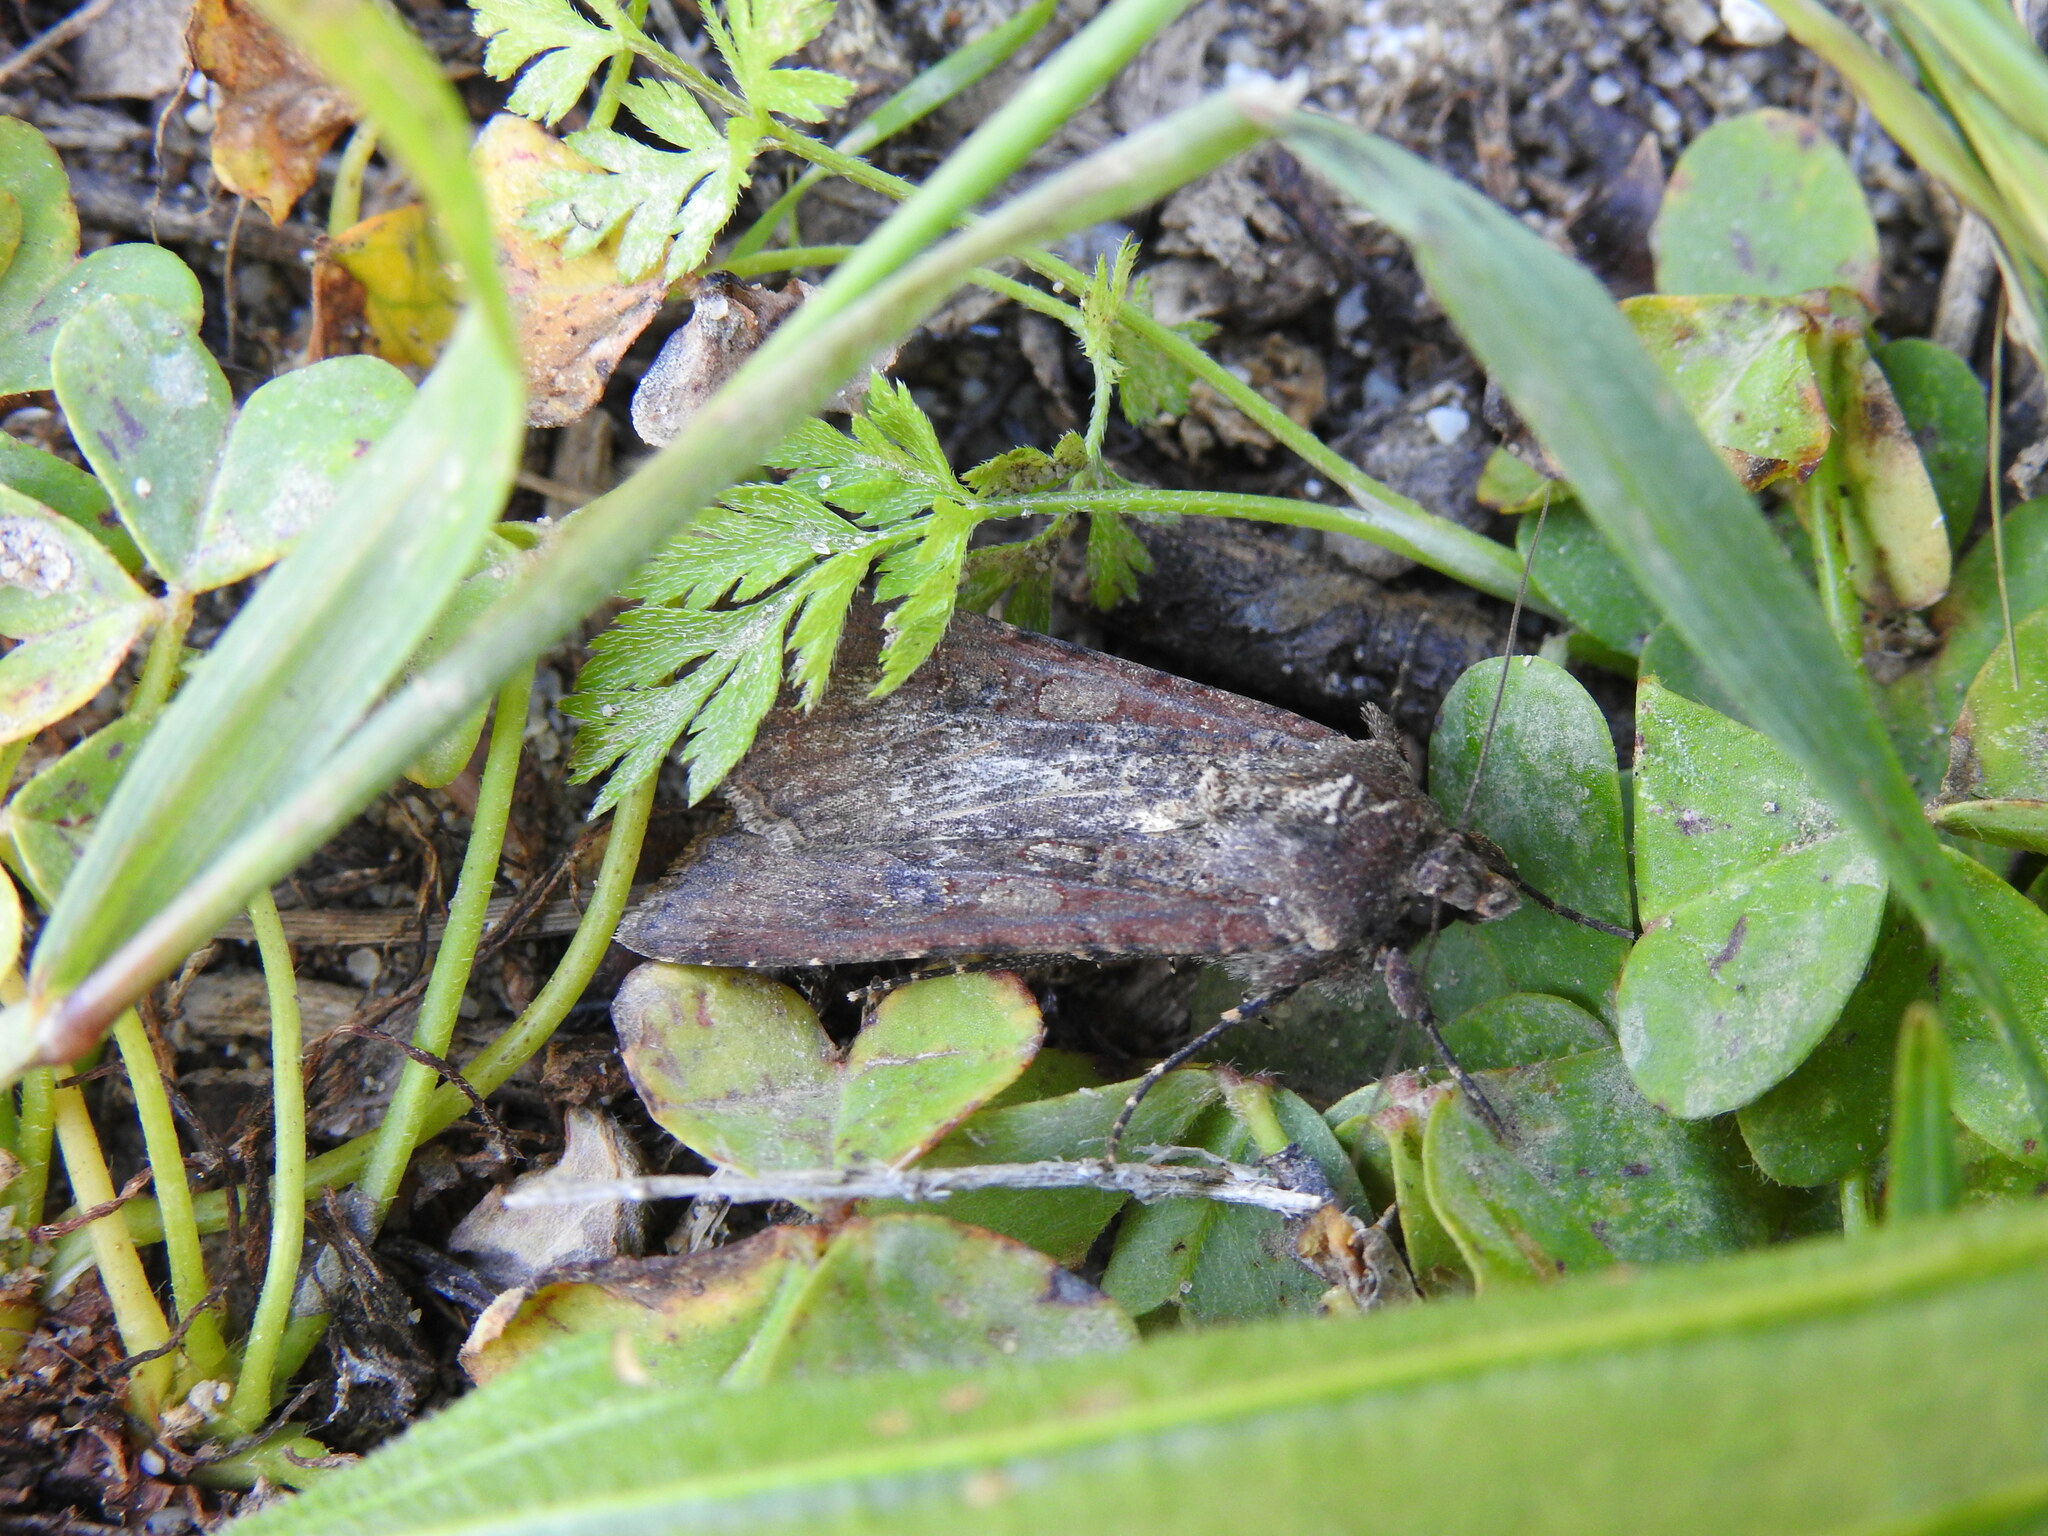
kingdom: Animalia
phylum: Arthropoda
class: Insecta
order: Lepidoptera
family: Noctuidae
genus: Peridroma
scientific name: Peridroma saucia
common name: Pearly underwing
